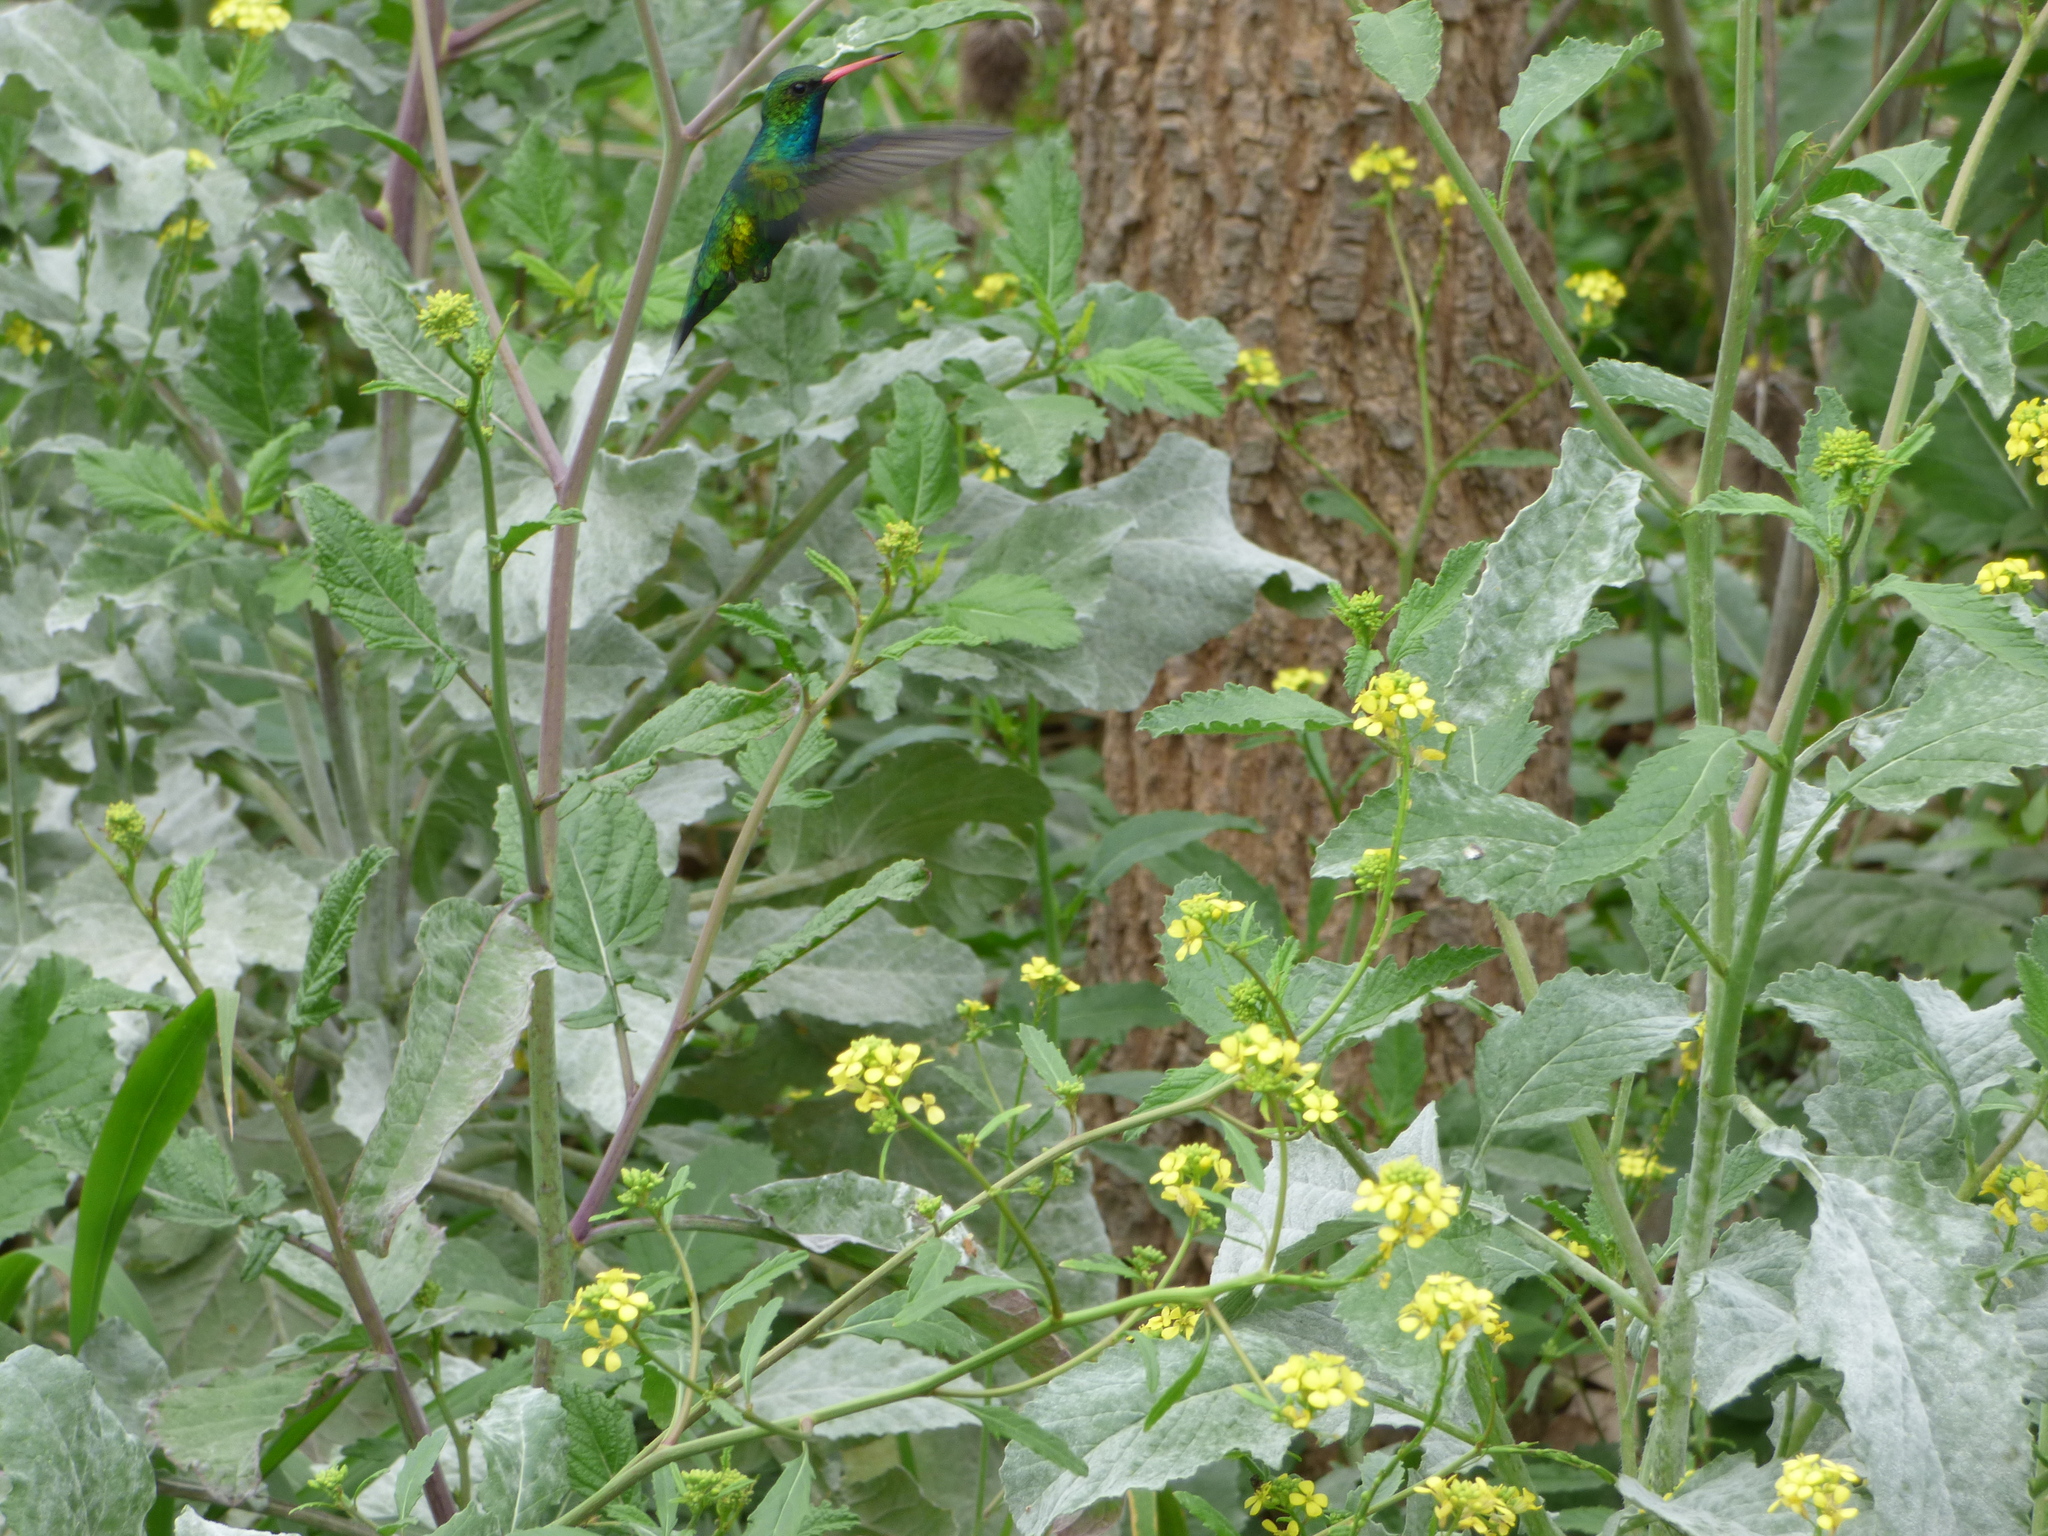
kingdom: Animalia
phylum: Chordata
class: Aves
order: Apodiformes
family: Trochilidae
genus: Chlorostilbon
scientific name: Chlorostilbon lucidus
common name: Glittering-bellied emerald
